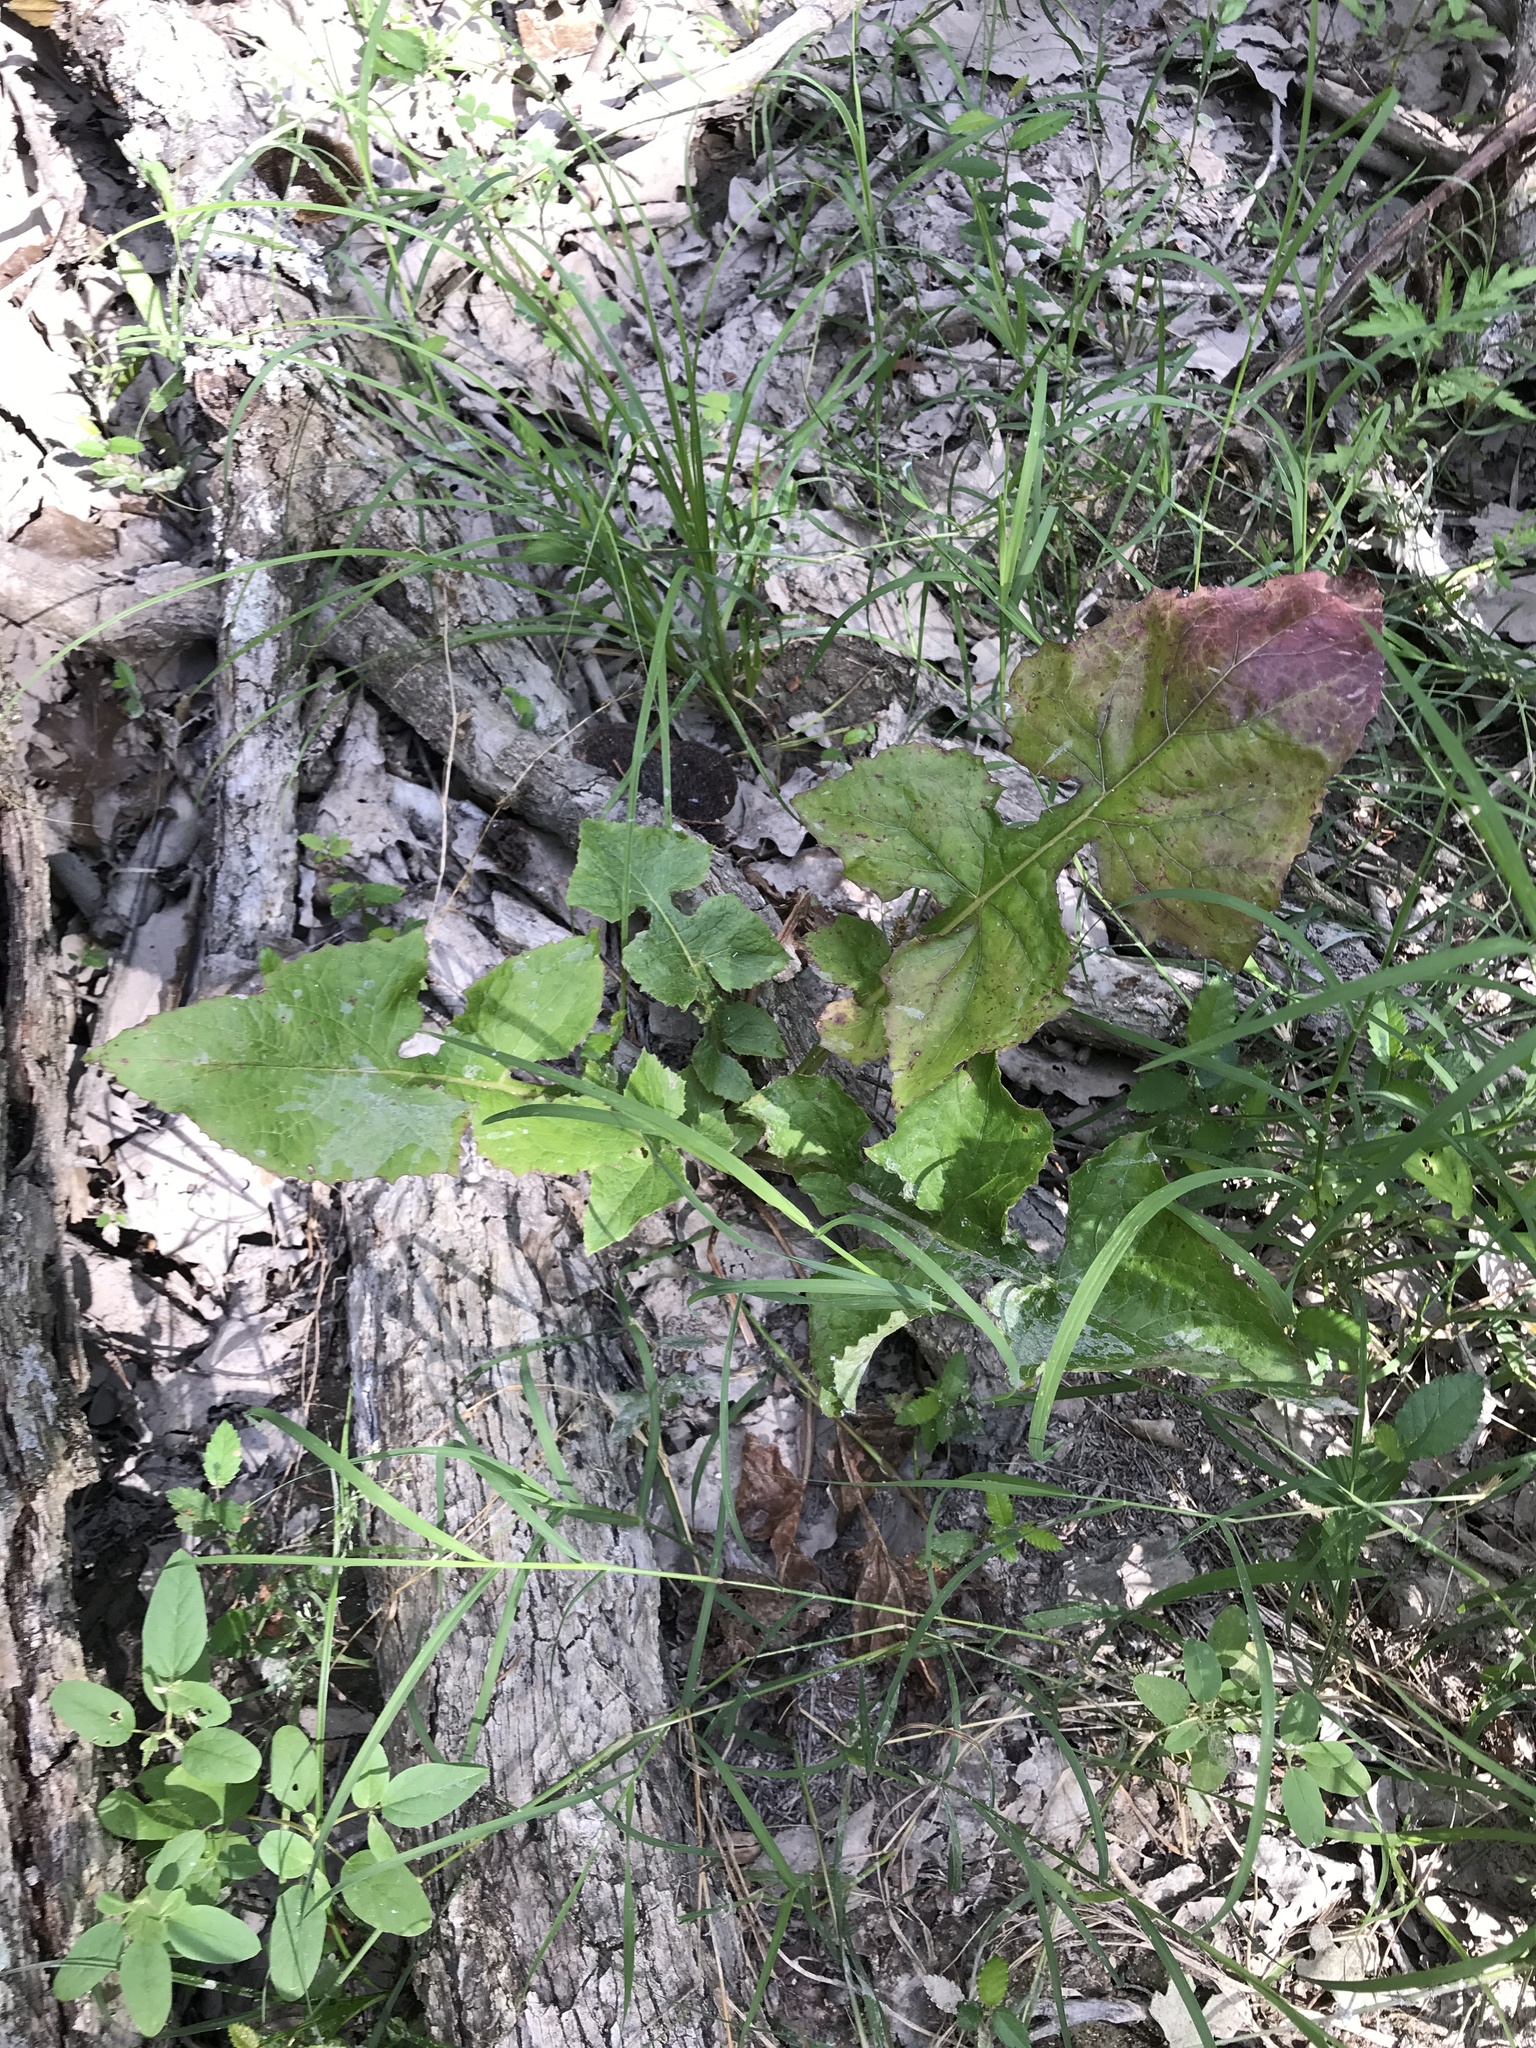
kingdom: Plantae
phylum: Tracheophyta
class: Magnoliopsida
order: Asterales
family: Asteraceae
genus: Lactuca
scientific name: Lactuca floridana
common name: Woodland lettuce
